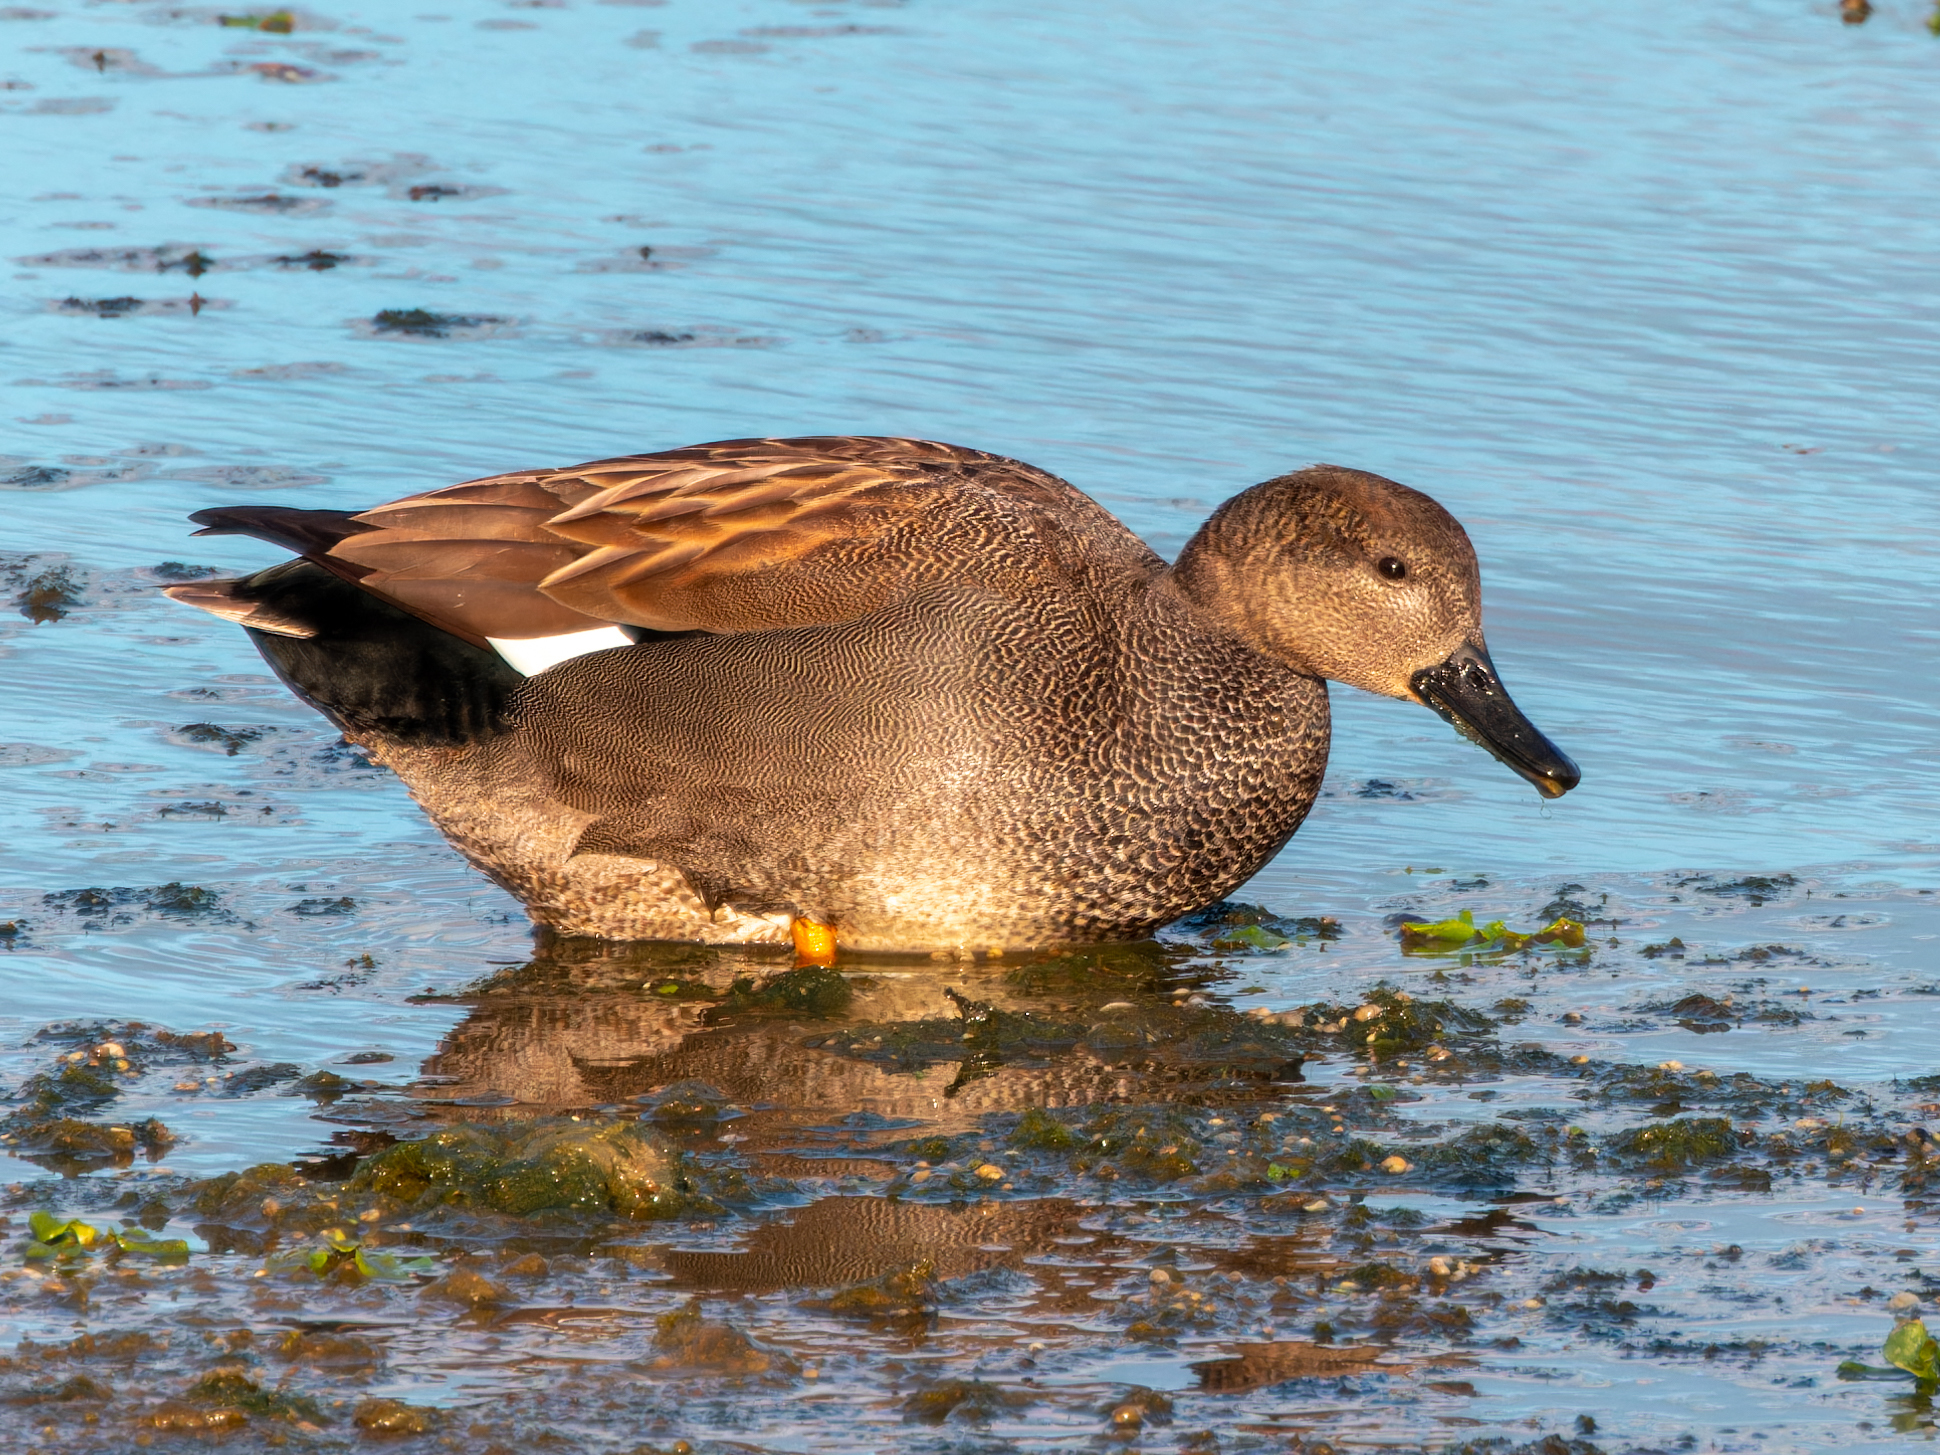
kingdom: Animalia
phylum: Chordata
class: Aves
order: Anseriformes
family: Anatidae
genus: Mareca
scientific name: Mareca strepera
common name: Gadwall
